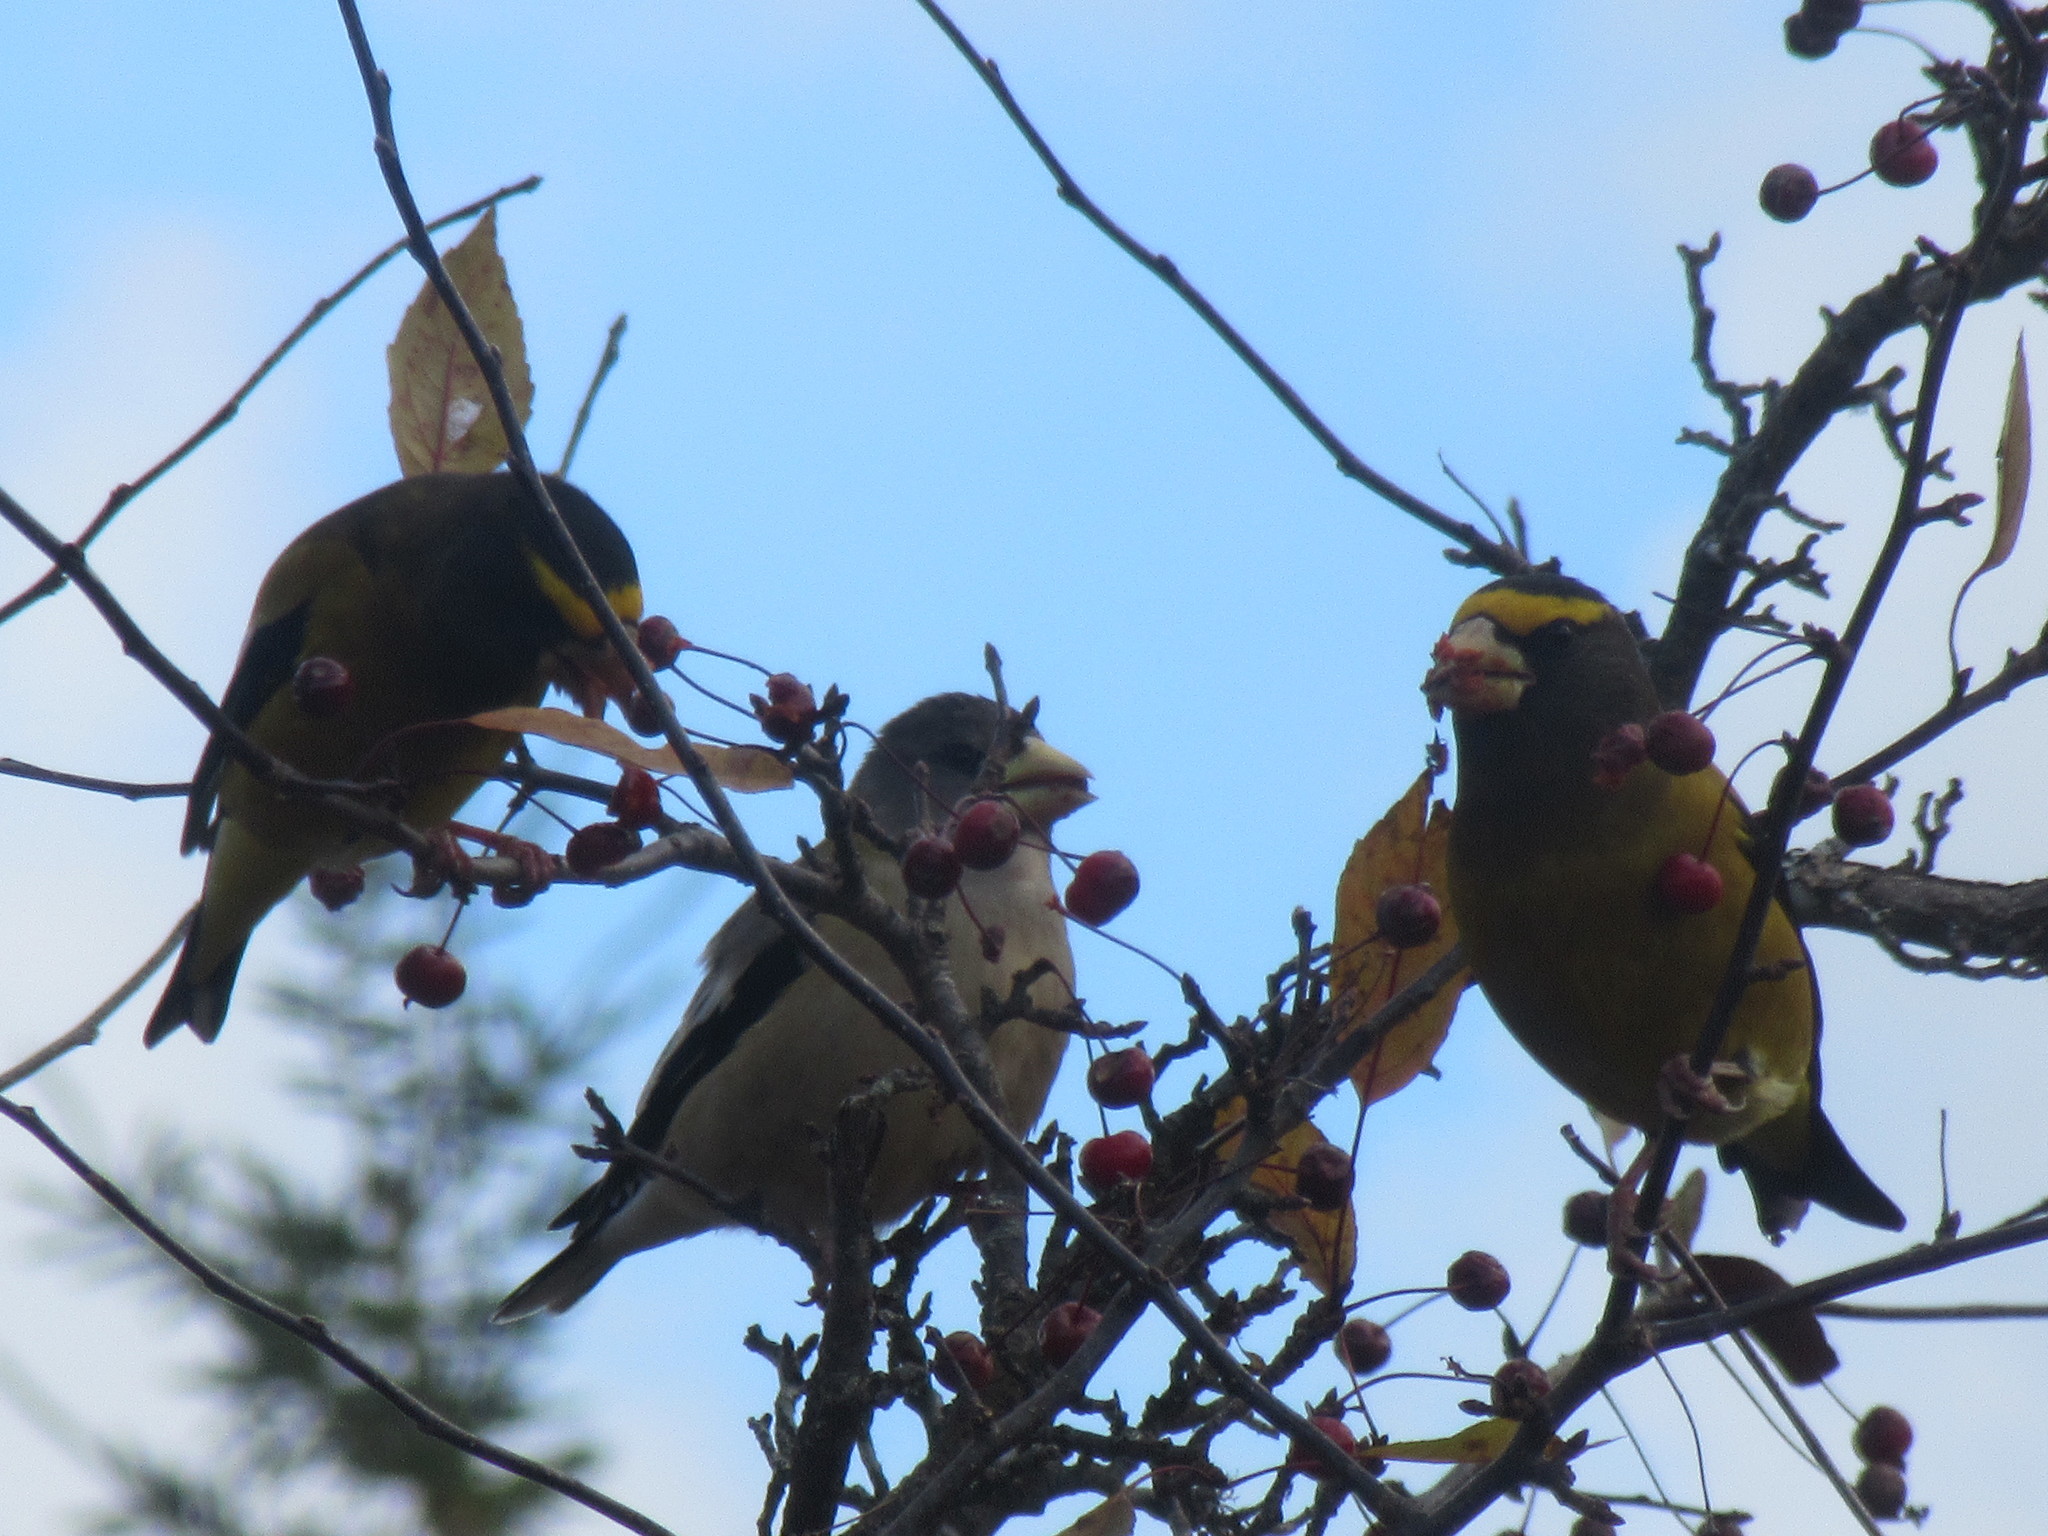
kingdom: Animalia
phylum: Chordata
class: Aves
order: Passeriformes
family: Fringillidae
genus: Hesperiphona
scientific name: Hesperiphona vespertina
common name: Evening grosbeak
